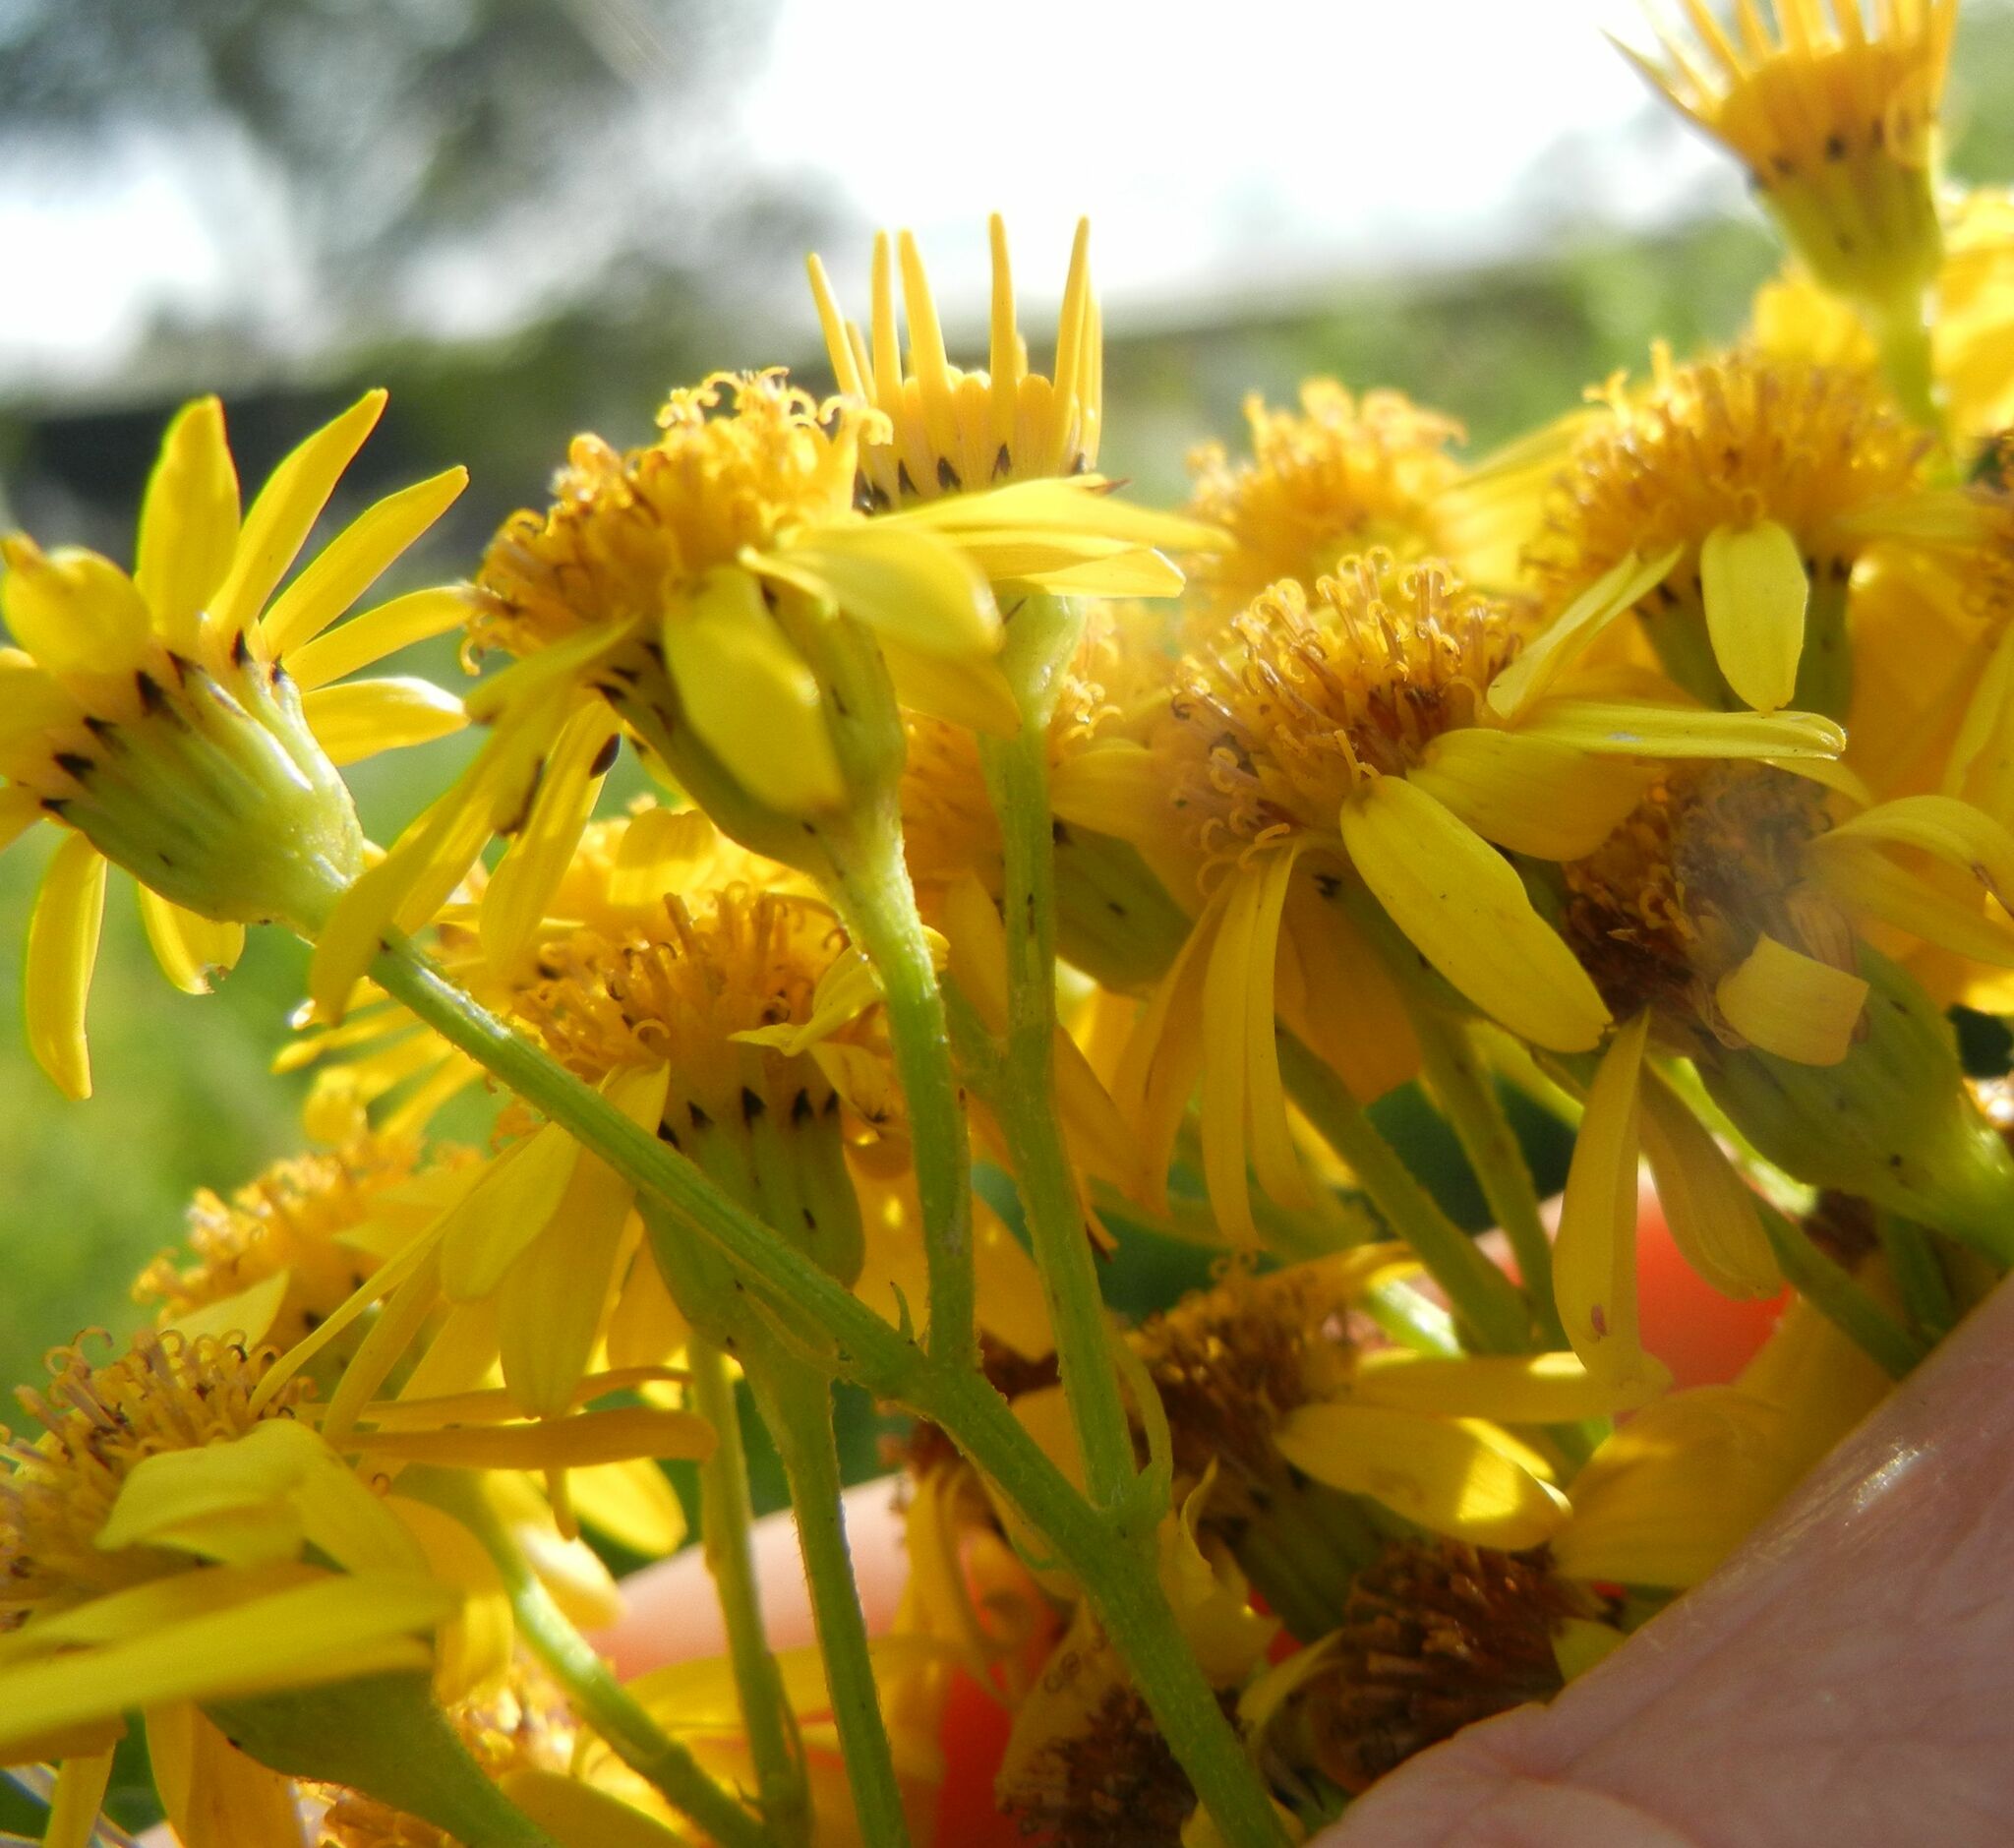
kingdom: Plantae
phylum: Tracheophyta
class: Magnoliopsida
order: Asterales
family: Asteraceae
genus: Jacobaea
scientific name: Jacobaea vulgaris
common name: Stinking willie
